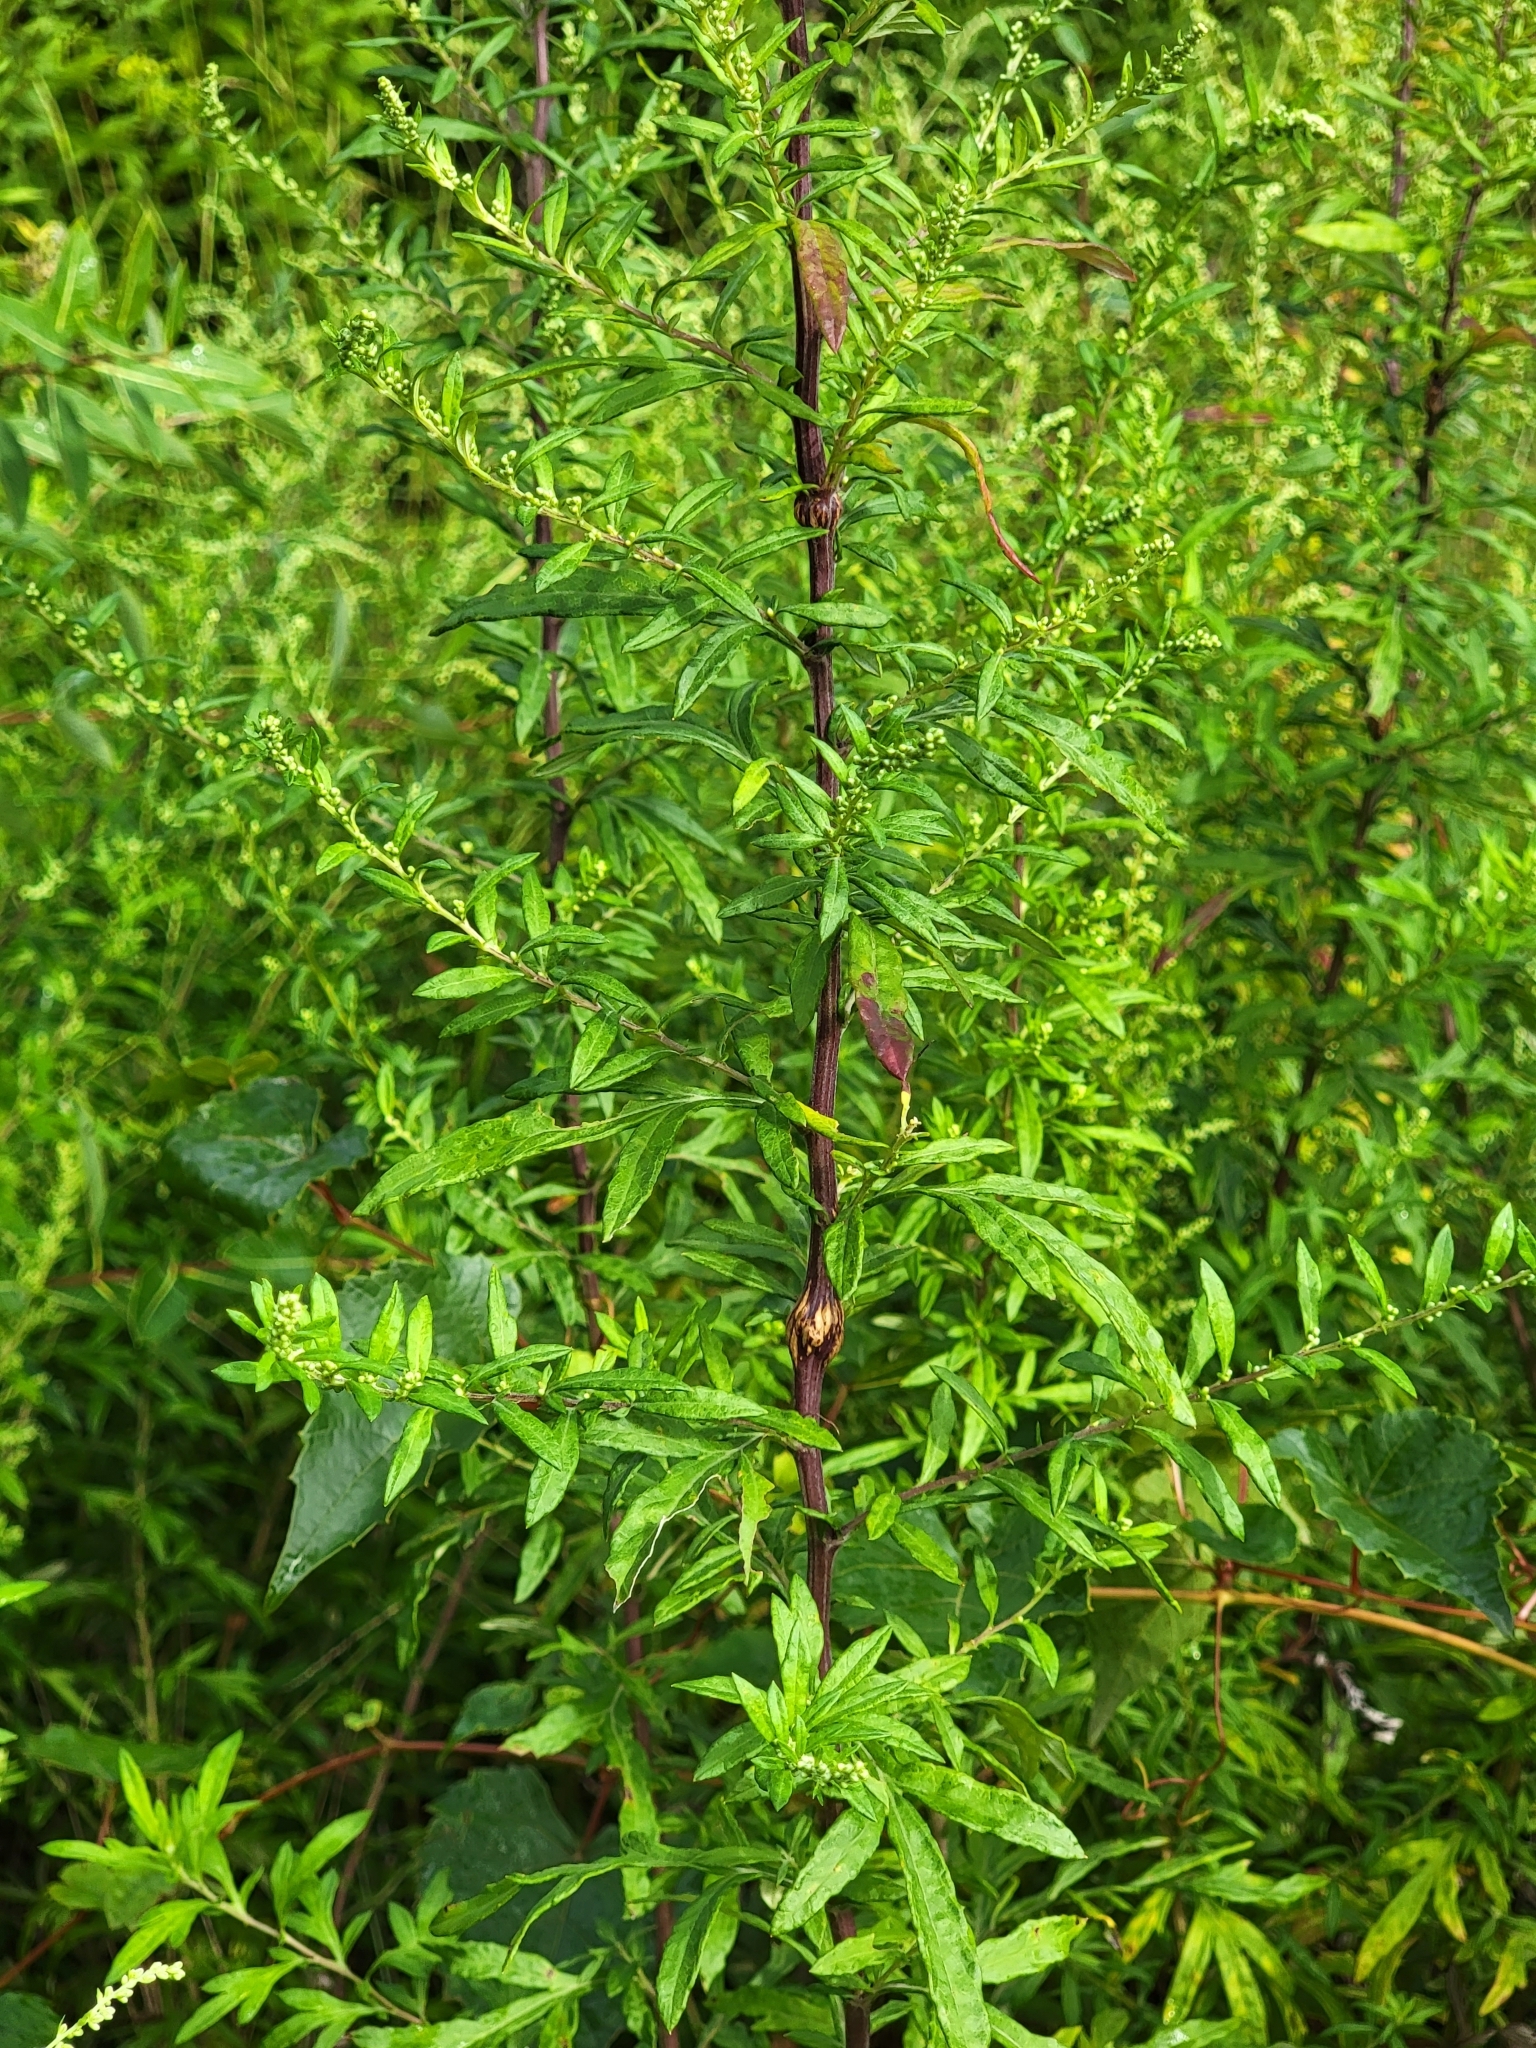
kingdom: Plantae
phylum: Tracheophyta
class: Magnoliopsida
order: Asterales
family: Asteraceae
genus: Artemisia
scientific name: Artemisia vulgaris
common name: Mugwort
